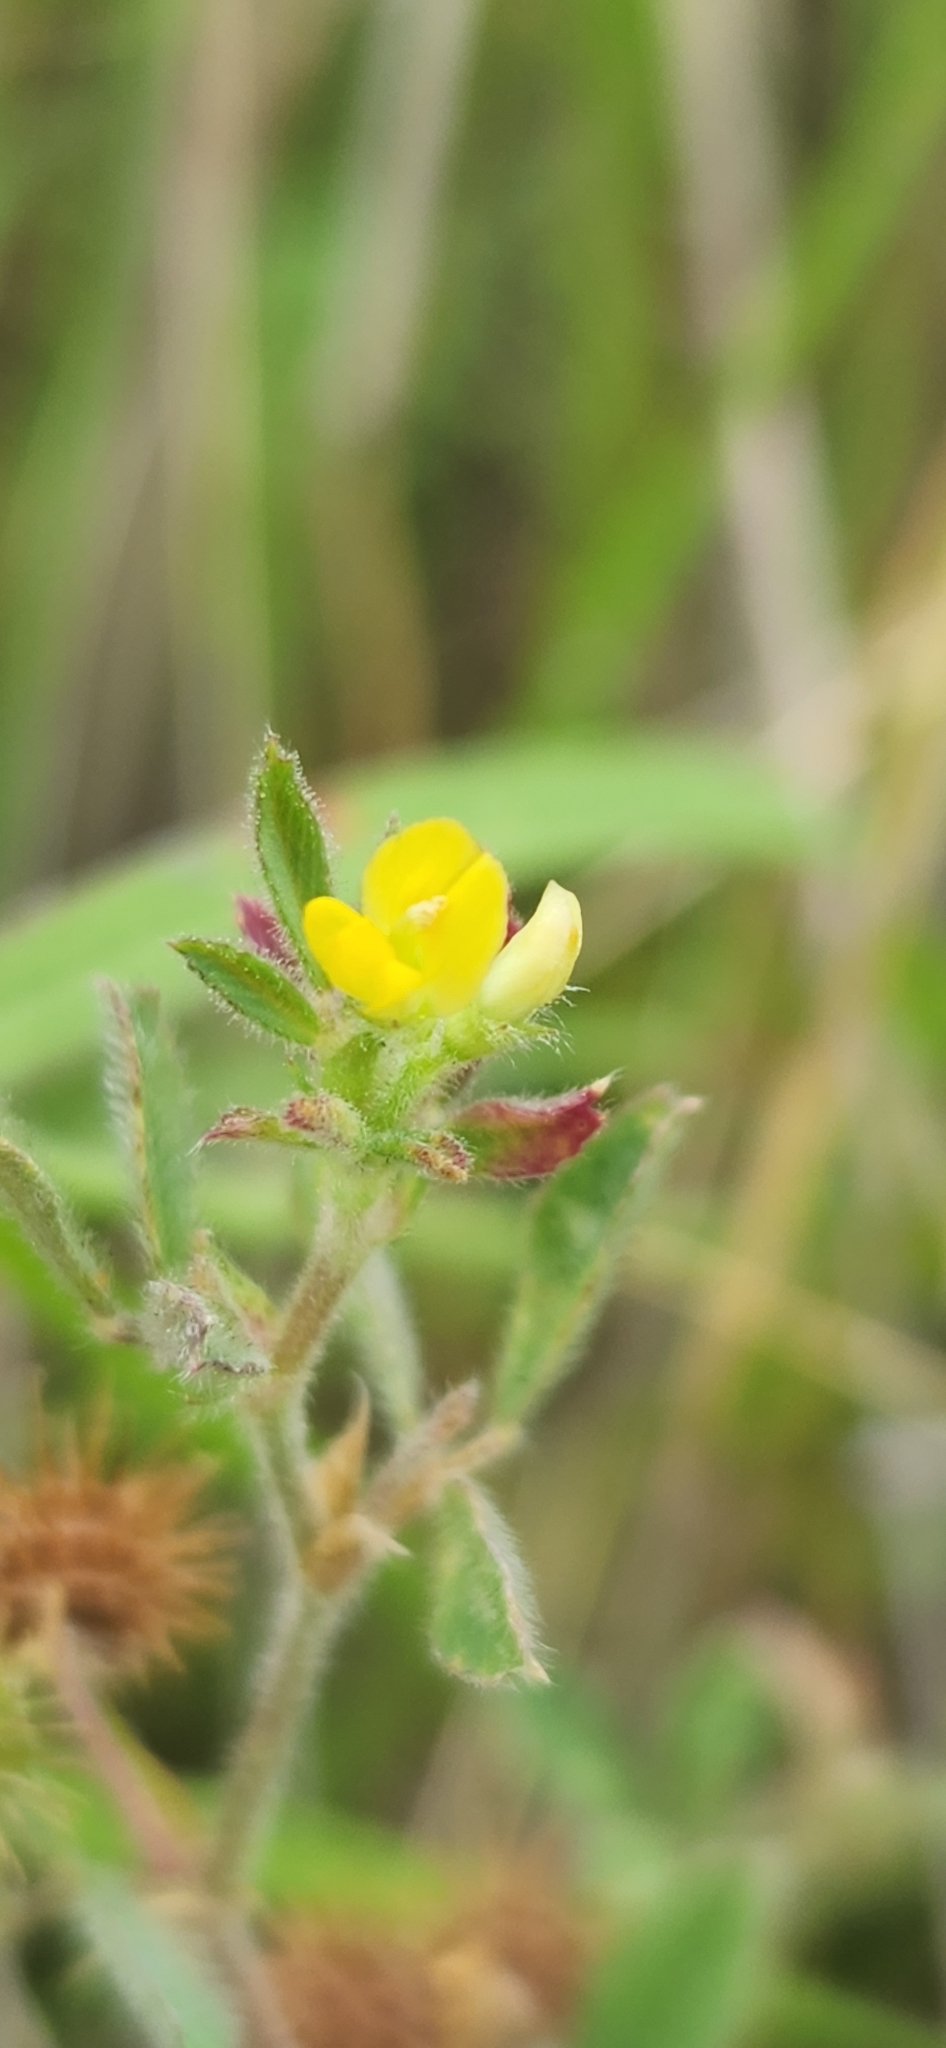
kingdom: Plantae
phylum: Tracheophyta
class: Magnoliopsida
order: Fabales
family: Fabaceae
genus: Medicago
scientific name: Medicago minima
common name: Little bur-clover
